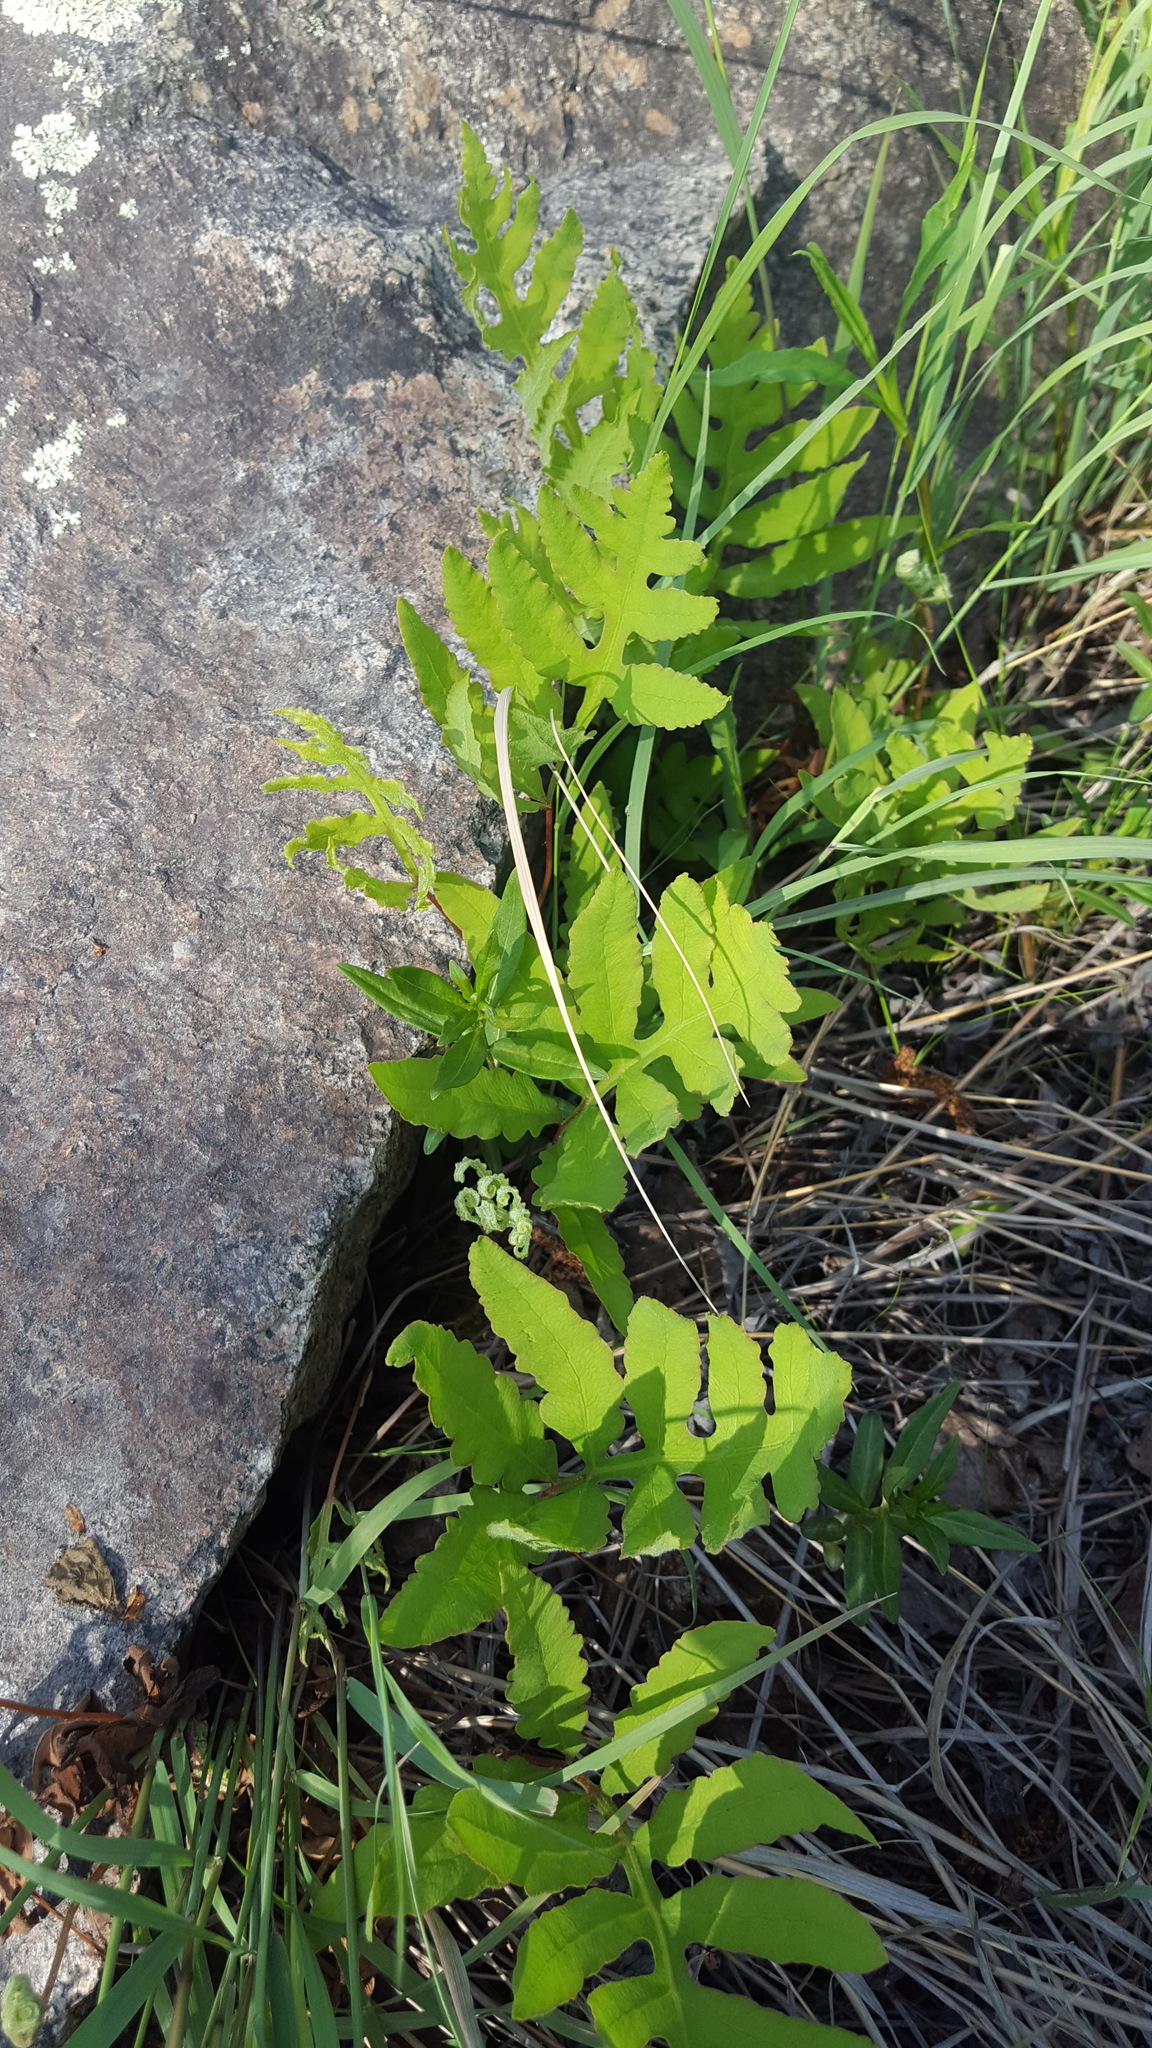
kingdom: Plantae
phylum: Tracheophyta
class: Polypodiopsida
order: Polypodiales
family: Onocleaceae
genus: Onoclea
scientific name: Onoclea sensibilis
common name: Sensitive fern
